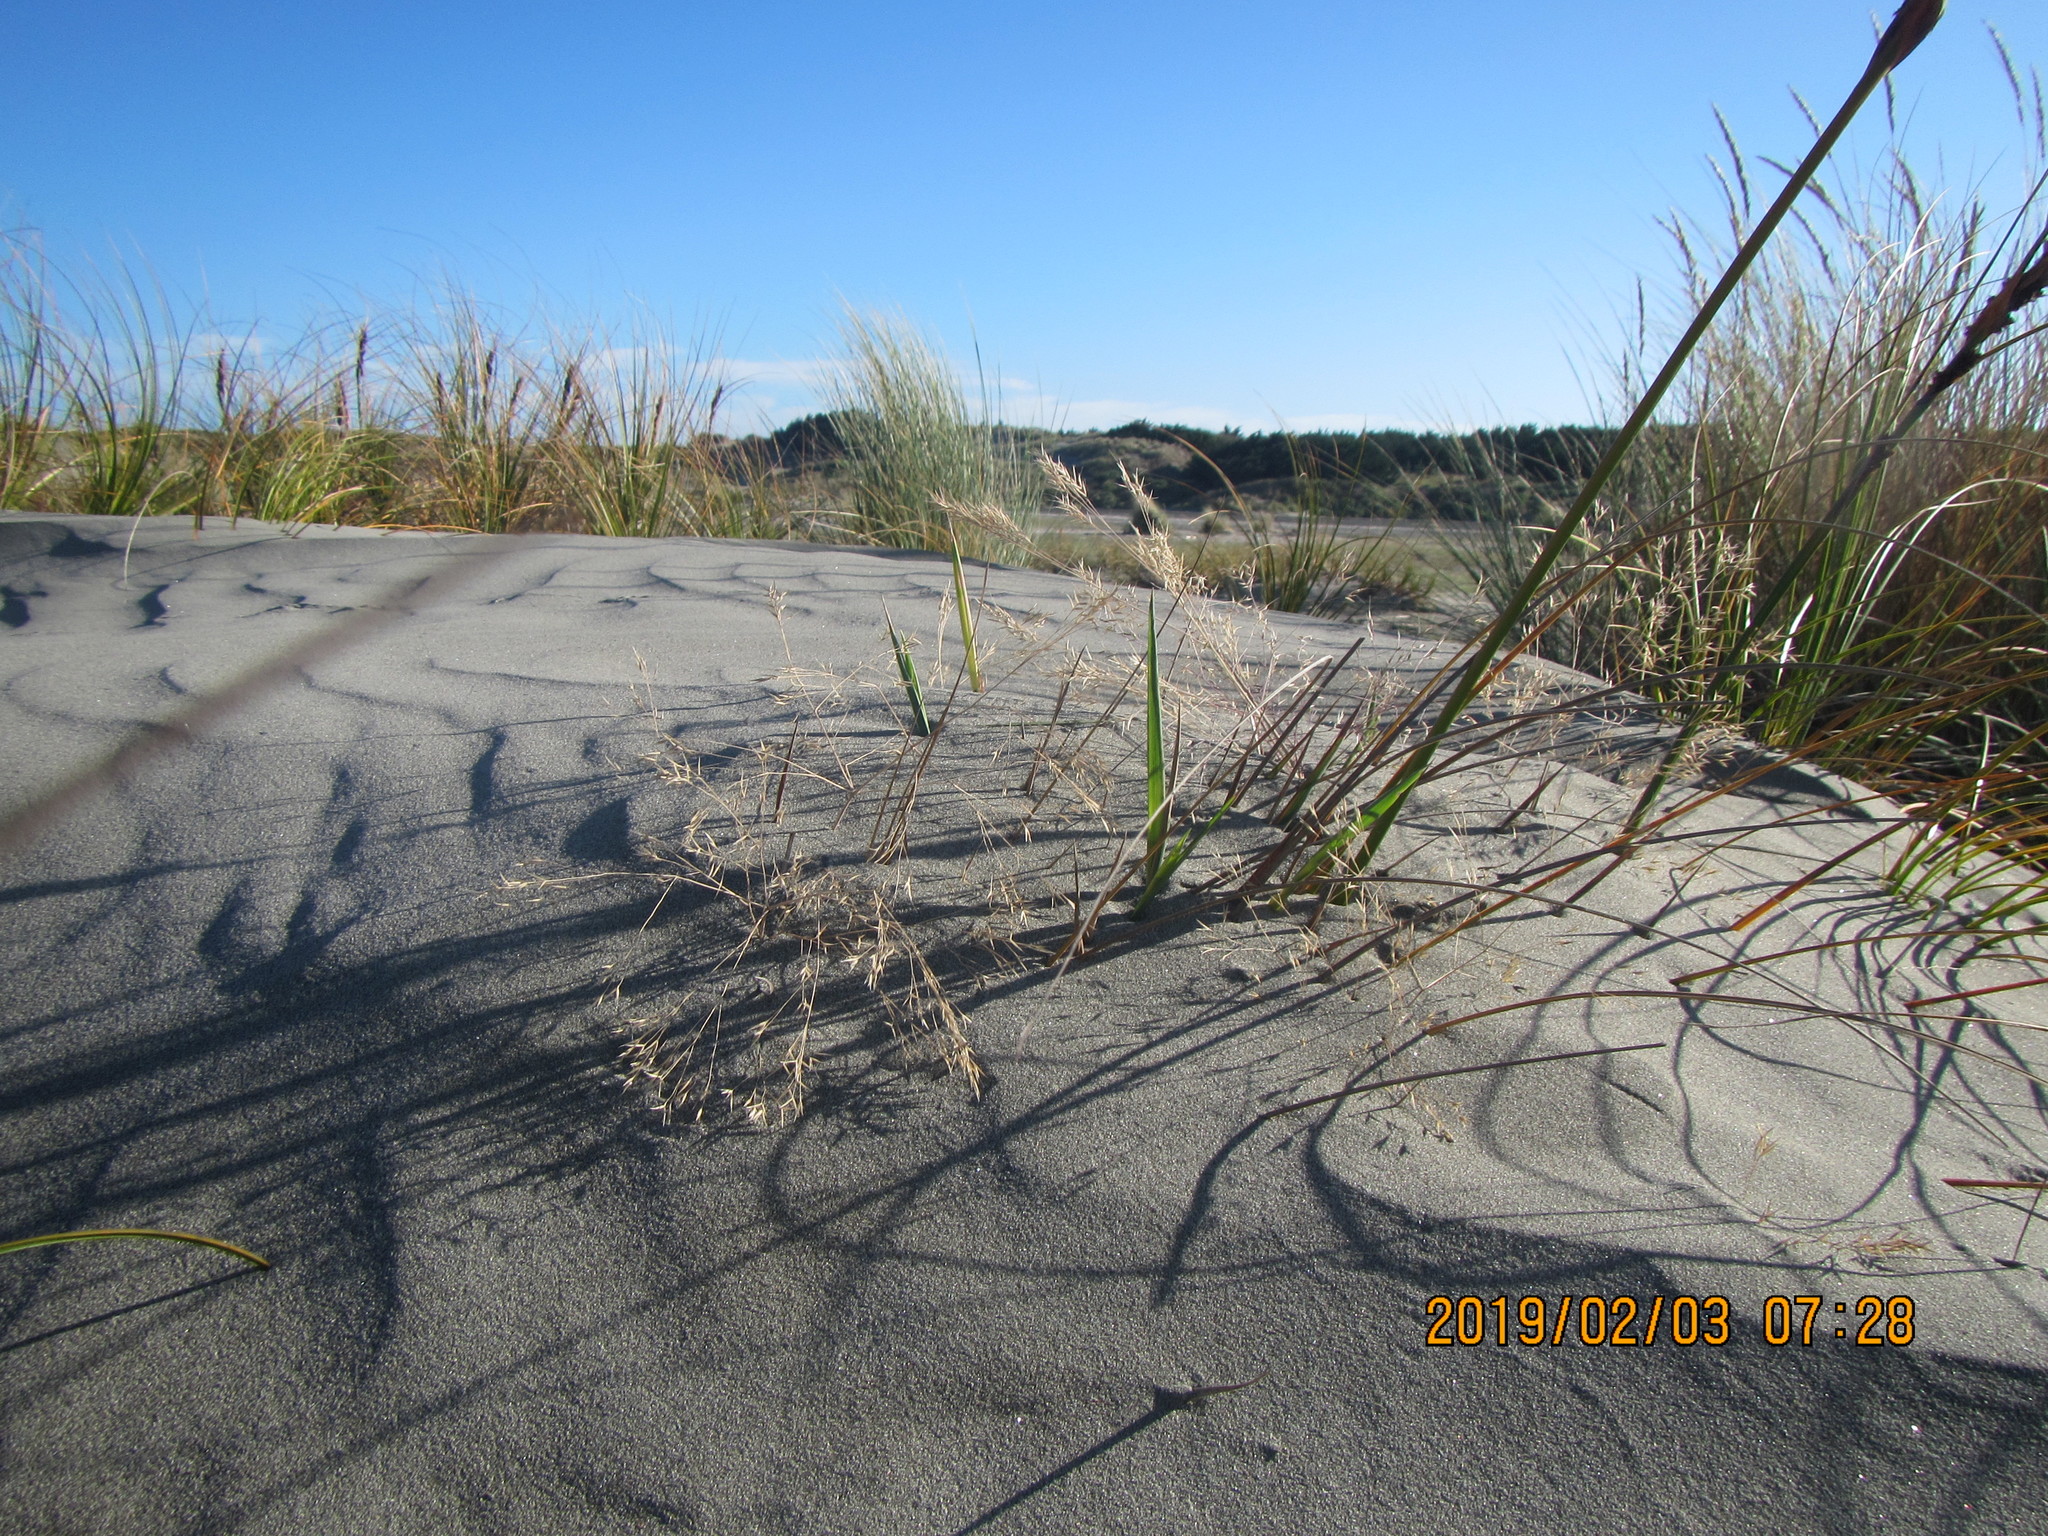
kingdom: Plantae
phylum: Tracheophyta
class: Liliopsida
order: Poales
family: Poaceae
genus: Lachnagrostis
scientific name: Lachnagrostis billardierei
